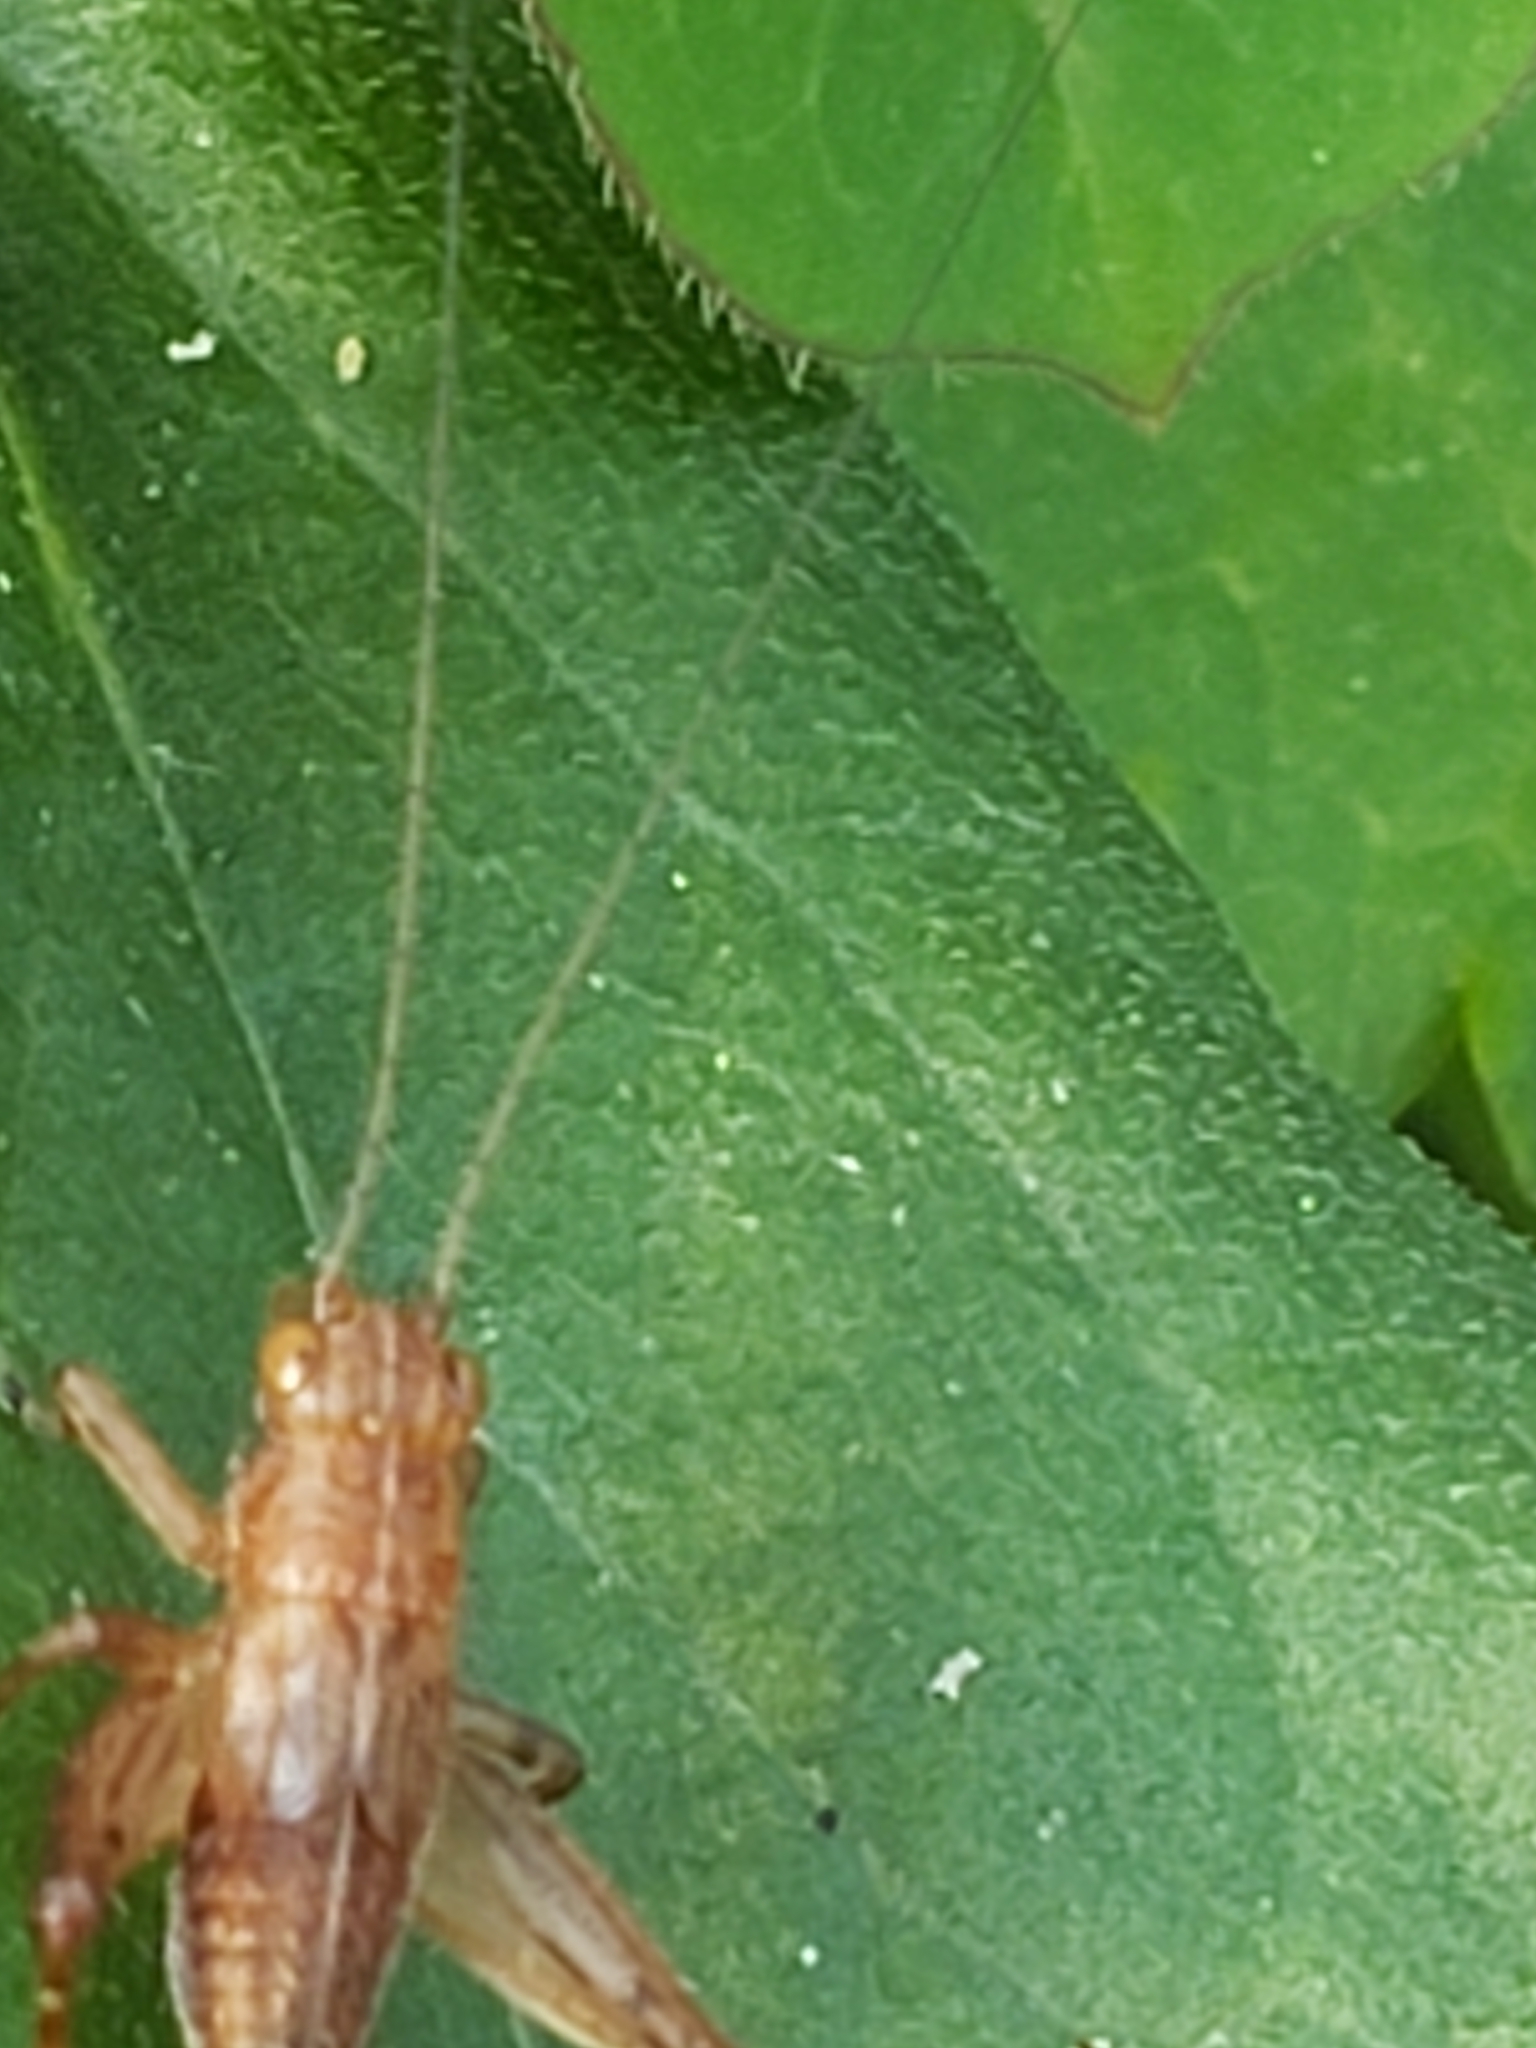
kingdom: Animalia
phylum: Arthropoda
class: Insecta
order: Orthoptera
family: Trigonidiidae
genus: Falcicula
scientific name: Falcicula hebardi
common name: Hebard's bush cricket
